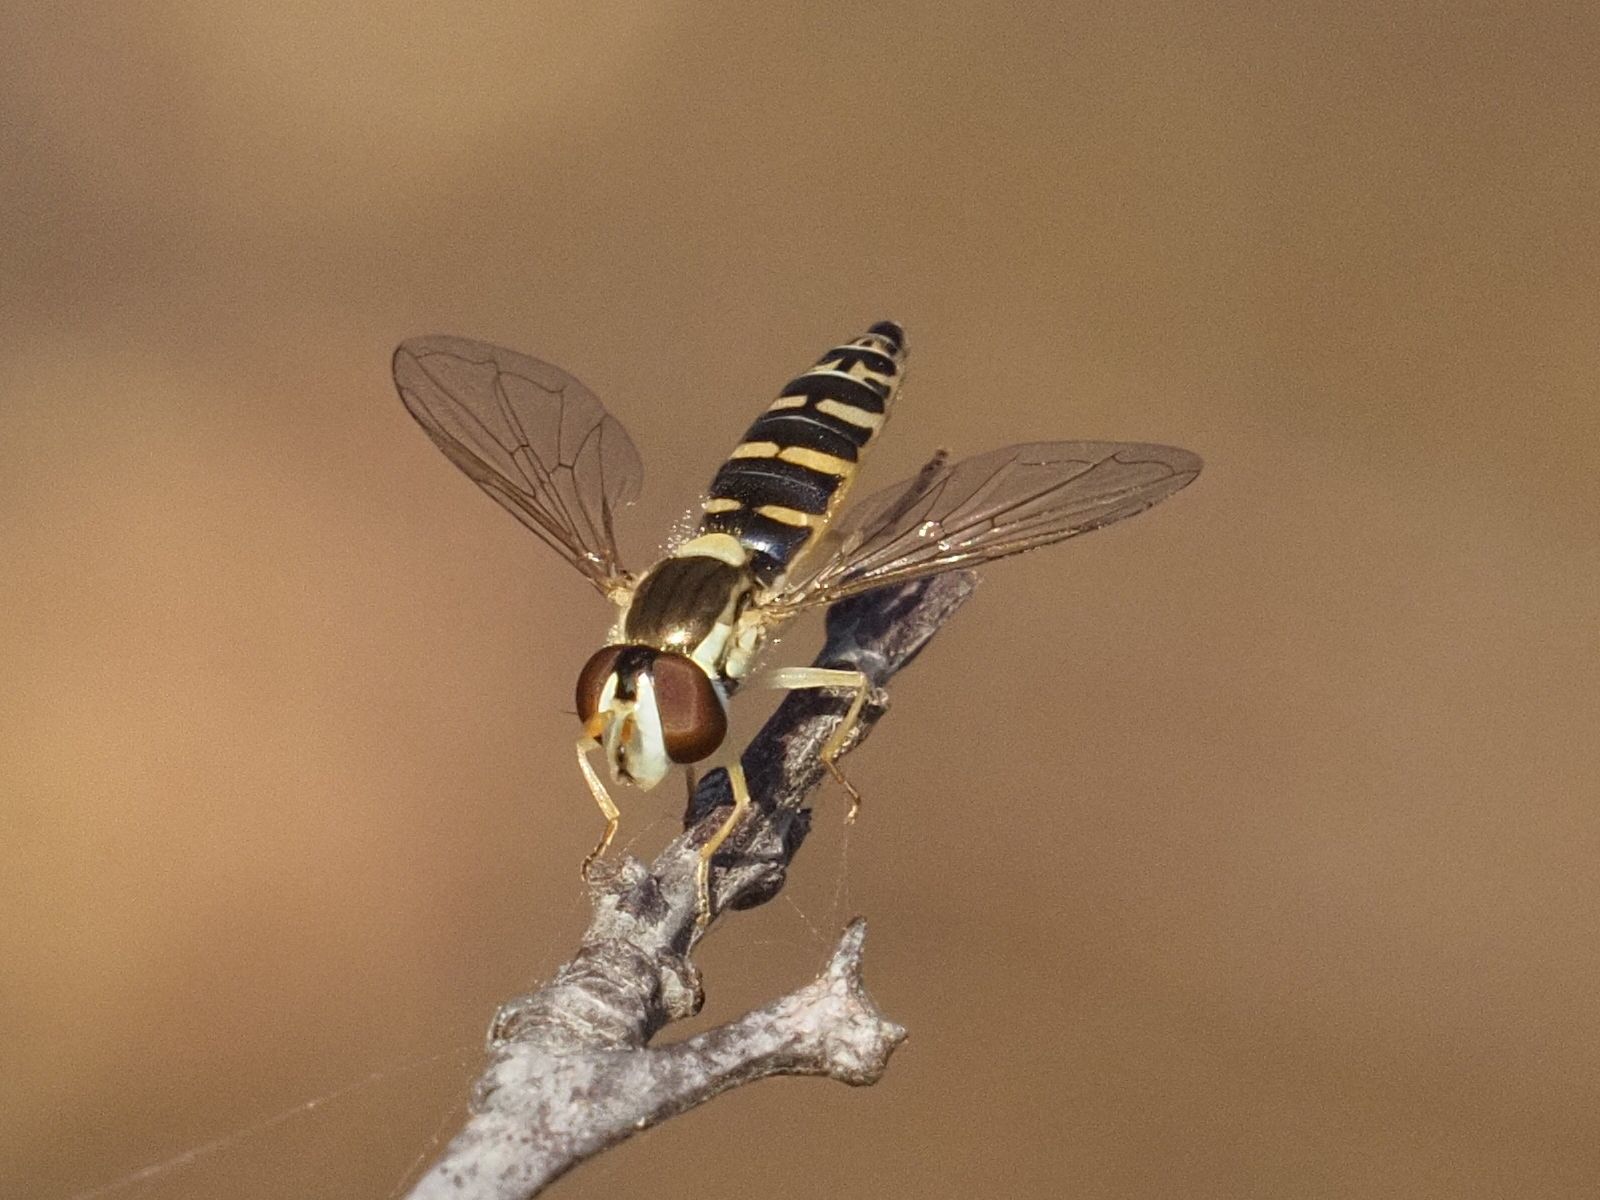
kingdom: Animalia
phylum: Arthropoda
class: Insecta
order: Diptera
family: Syrphidae
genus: Sphaerophoria
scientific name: Sphaerophoria
